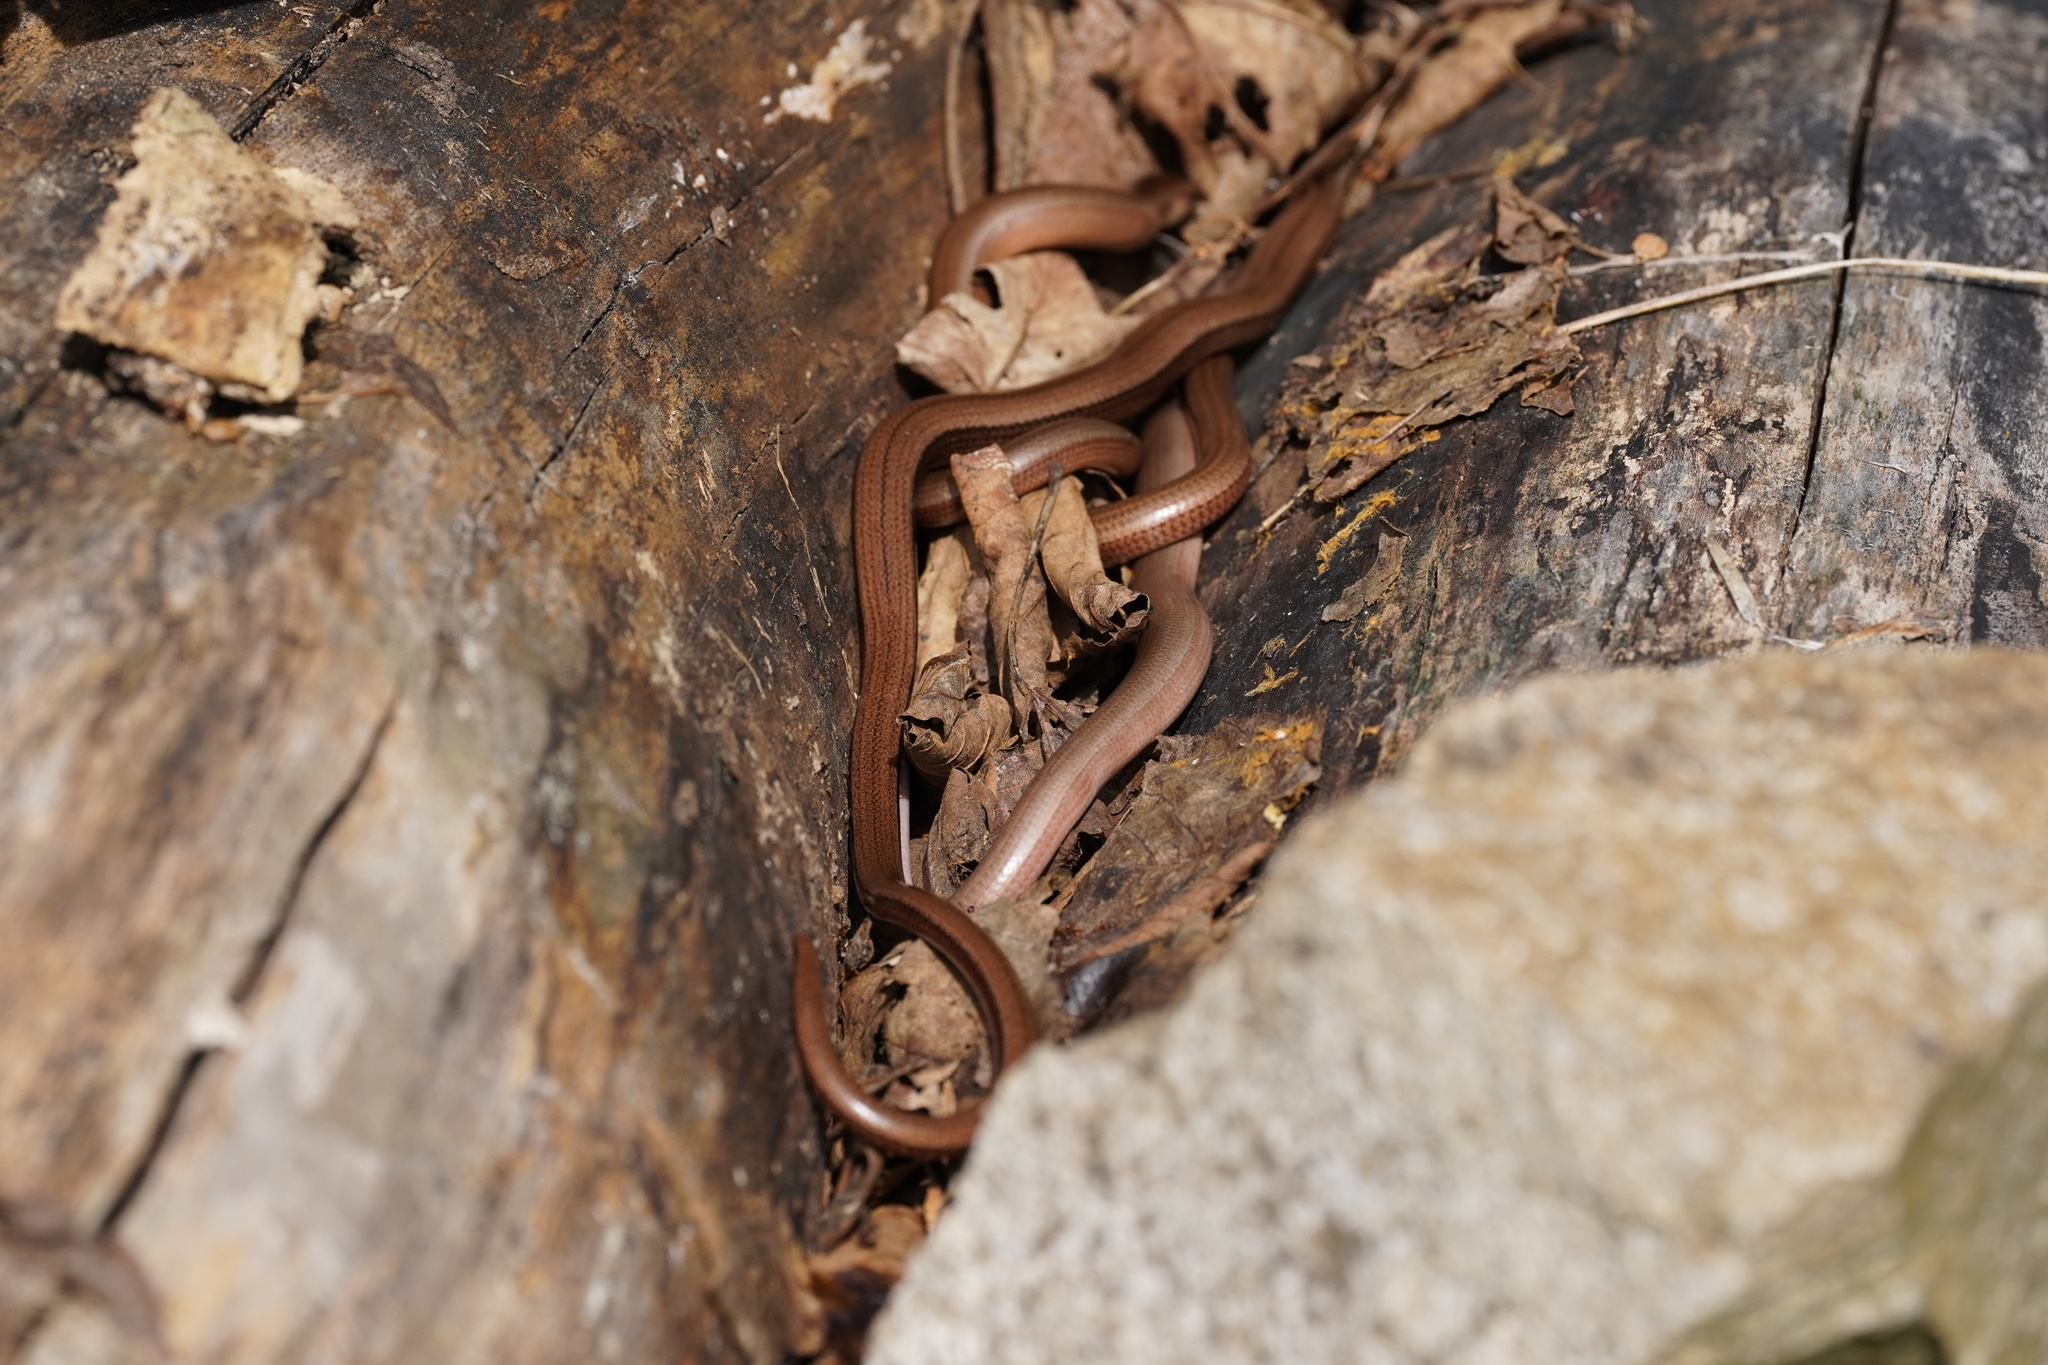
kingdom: Animalia
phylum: Chordata
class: Squamata
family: Anguidae
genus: Anguis
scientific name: Anguis fragilis
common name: Slow worm
